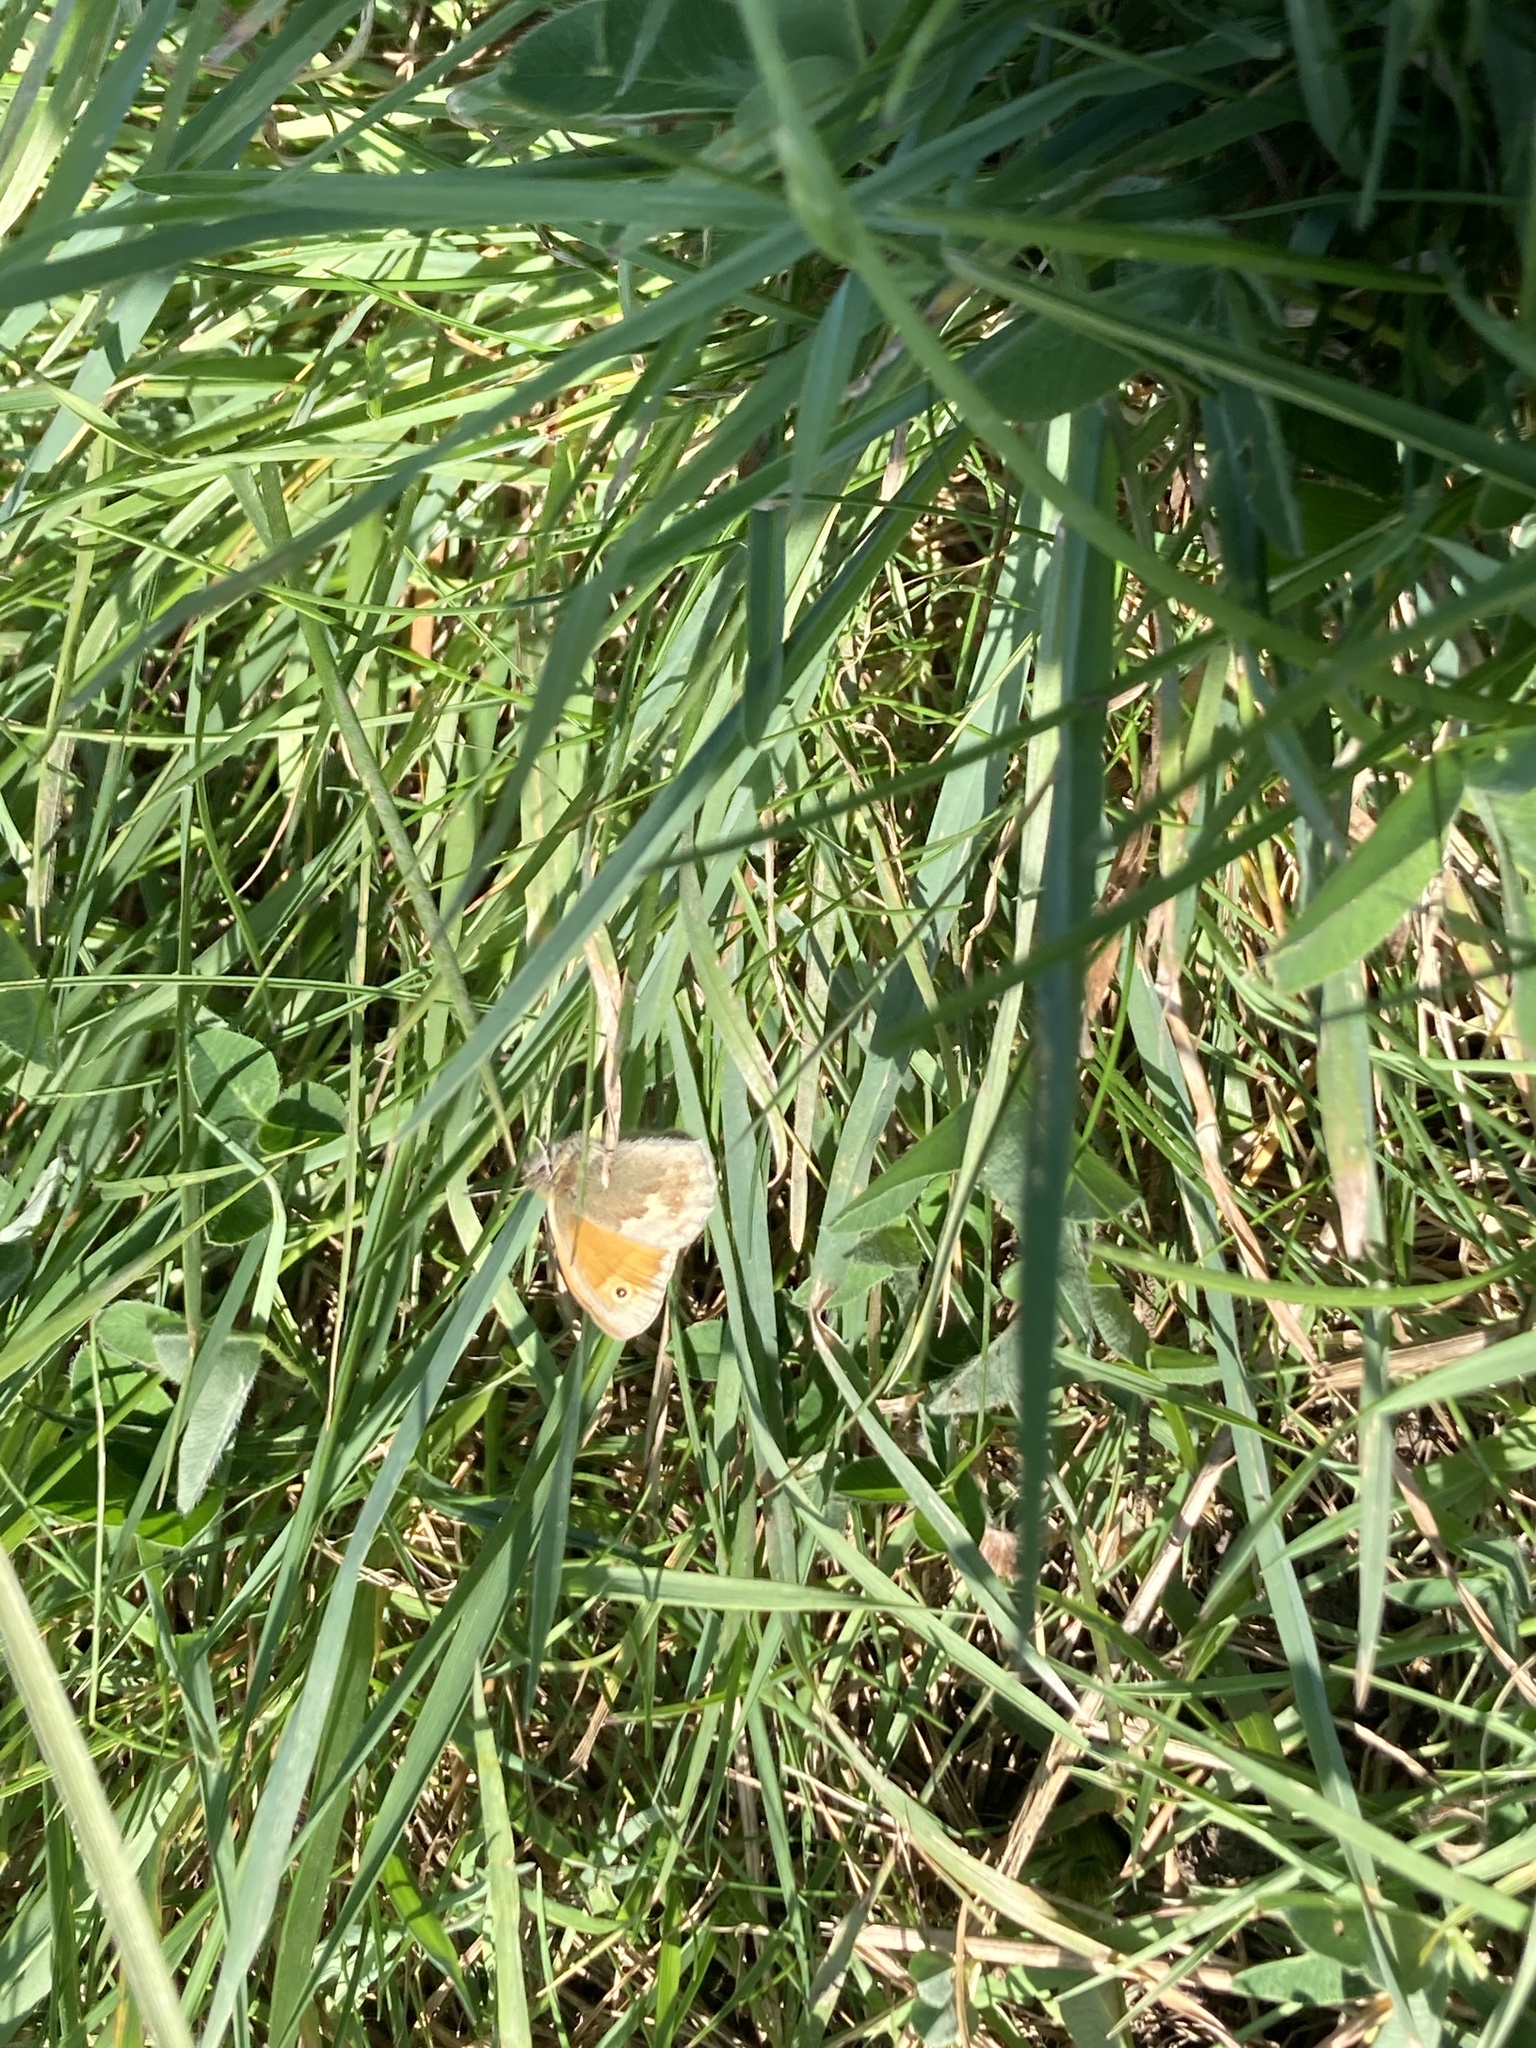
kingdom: Animalia
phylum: Arthropoda
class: Insecta
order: Lepidoptera
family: Nymphalidae
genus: Coenonympha
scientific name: Coenonympha pamphilus
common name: Small heath
